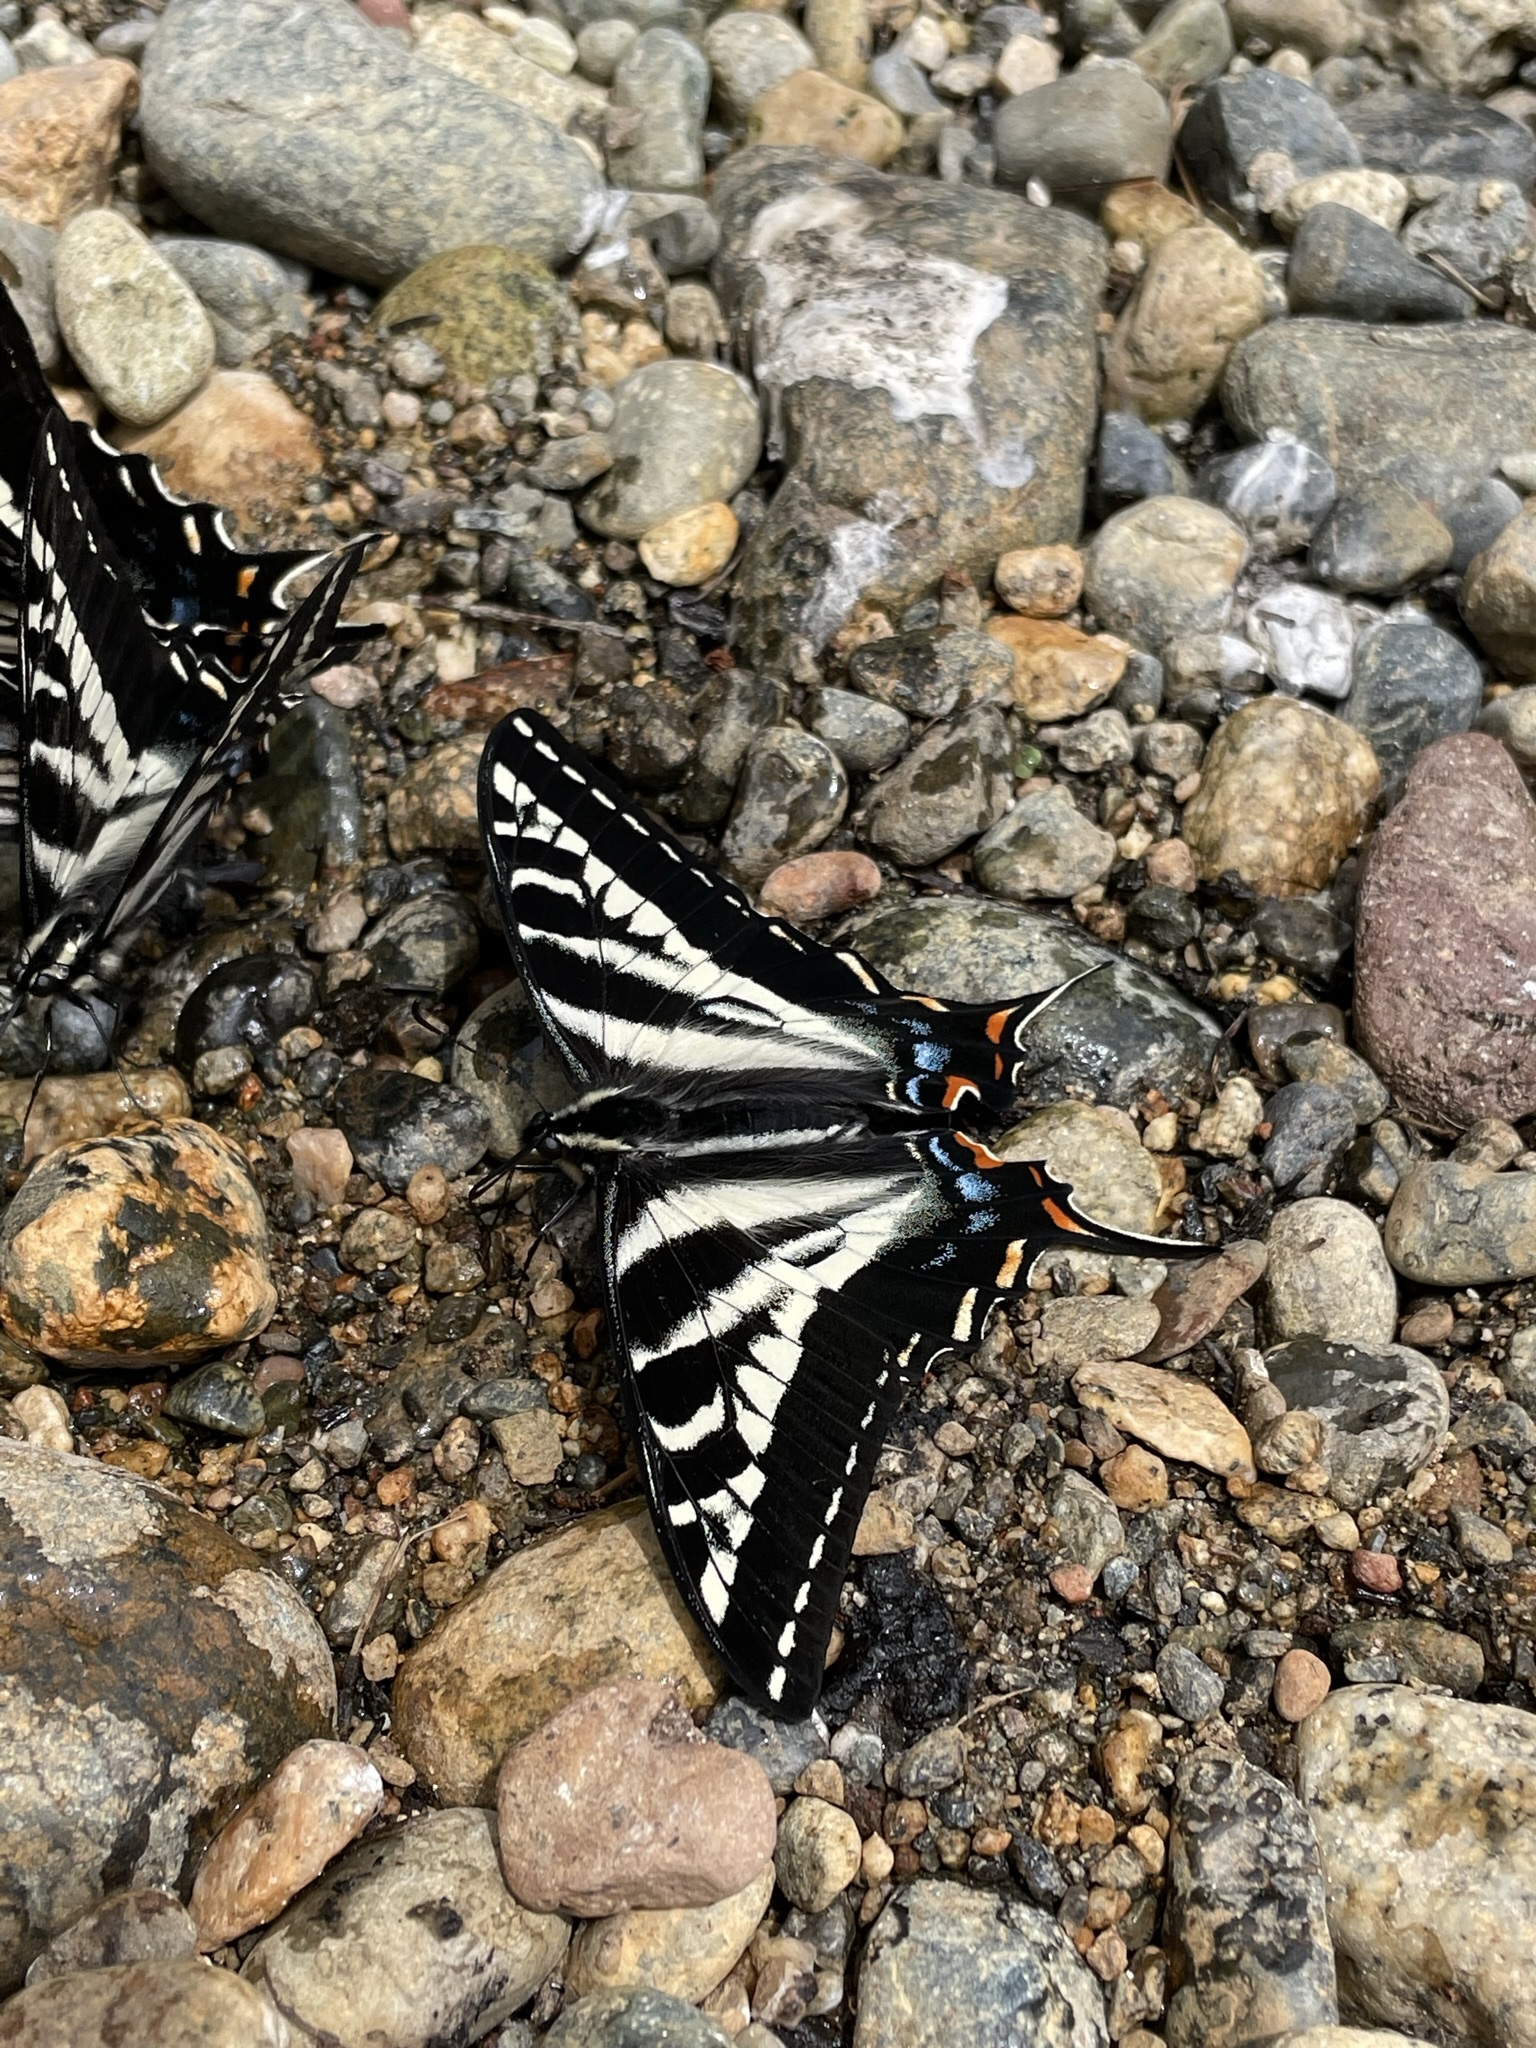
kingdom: Animalia
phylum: Arthropoda
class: Insecta
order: Lepidoptera
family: Papilionidae
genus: Papilio
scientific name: Papilio eurymedon
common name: Pale tiger swallowtail
